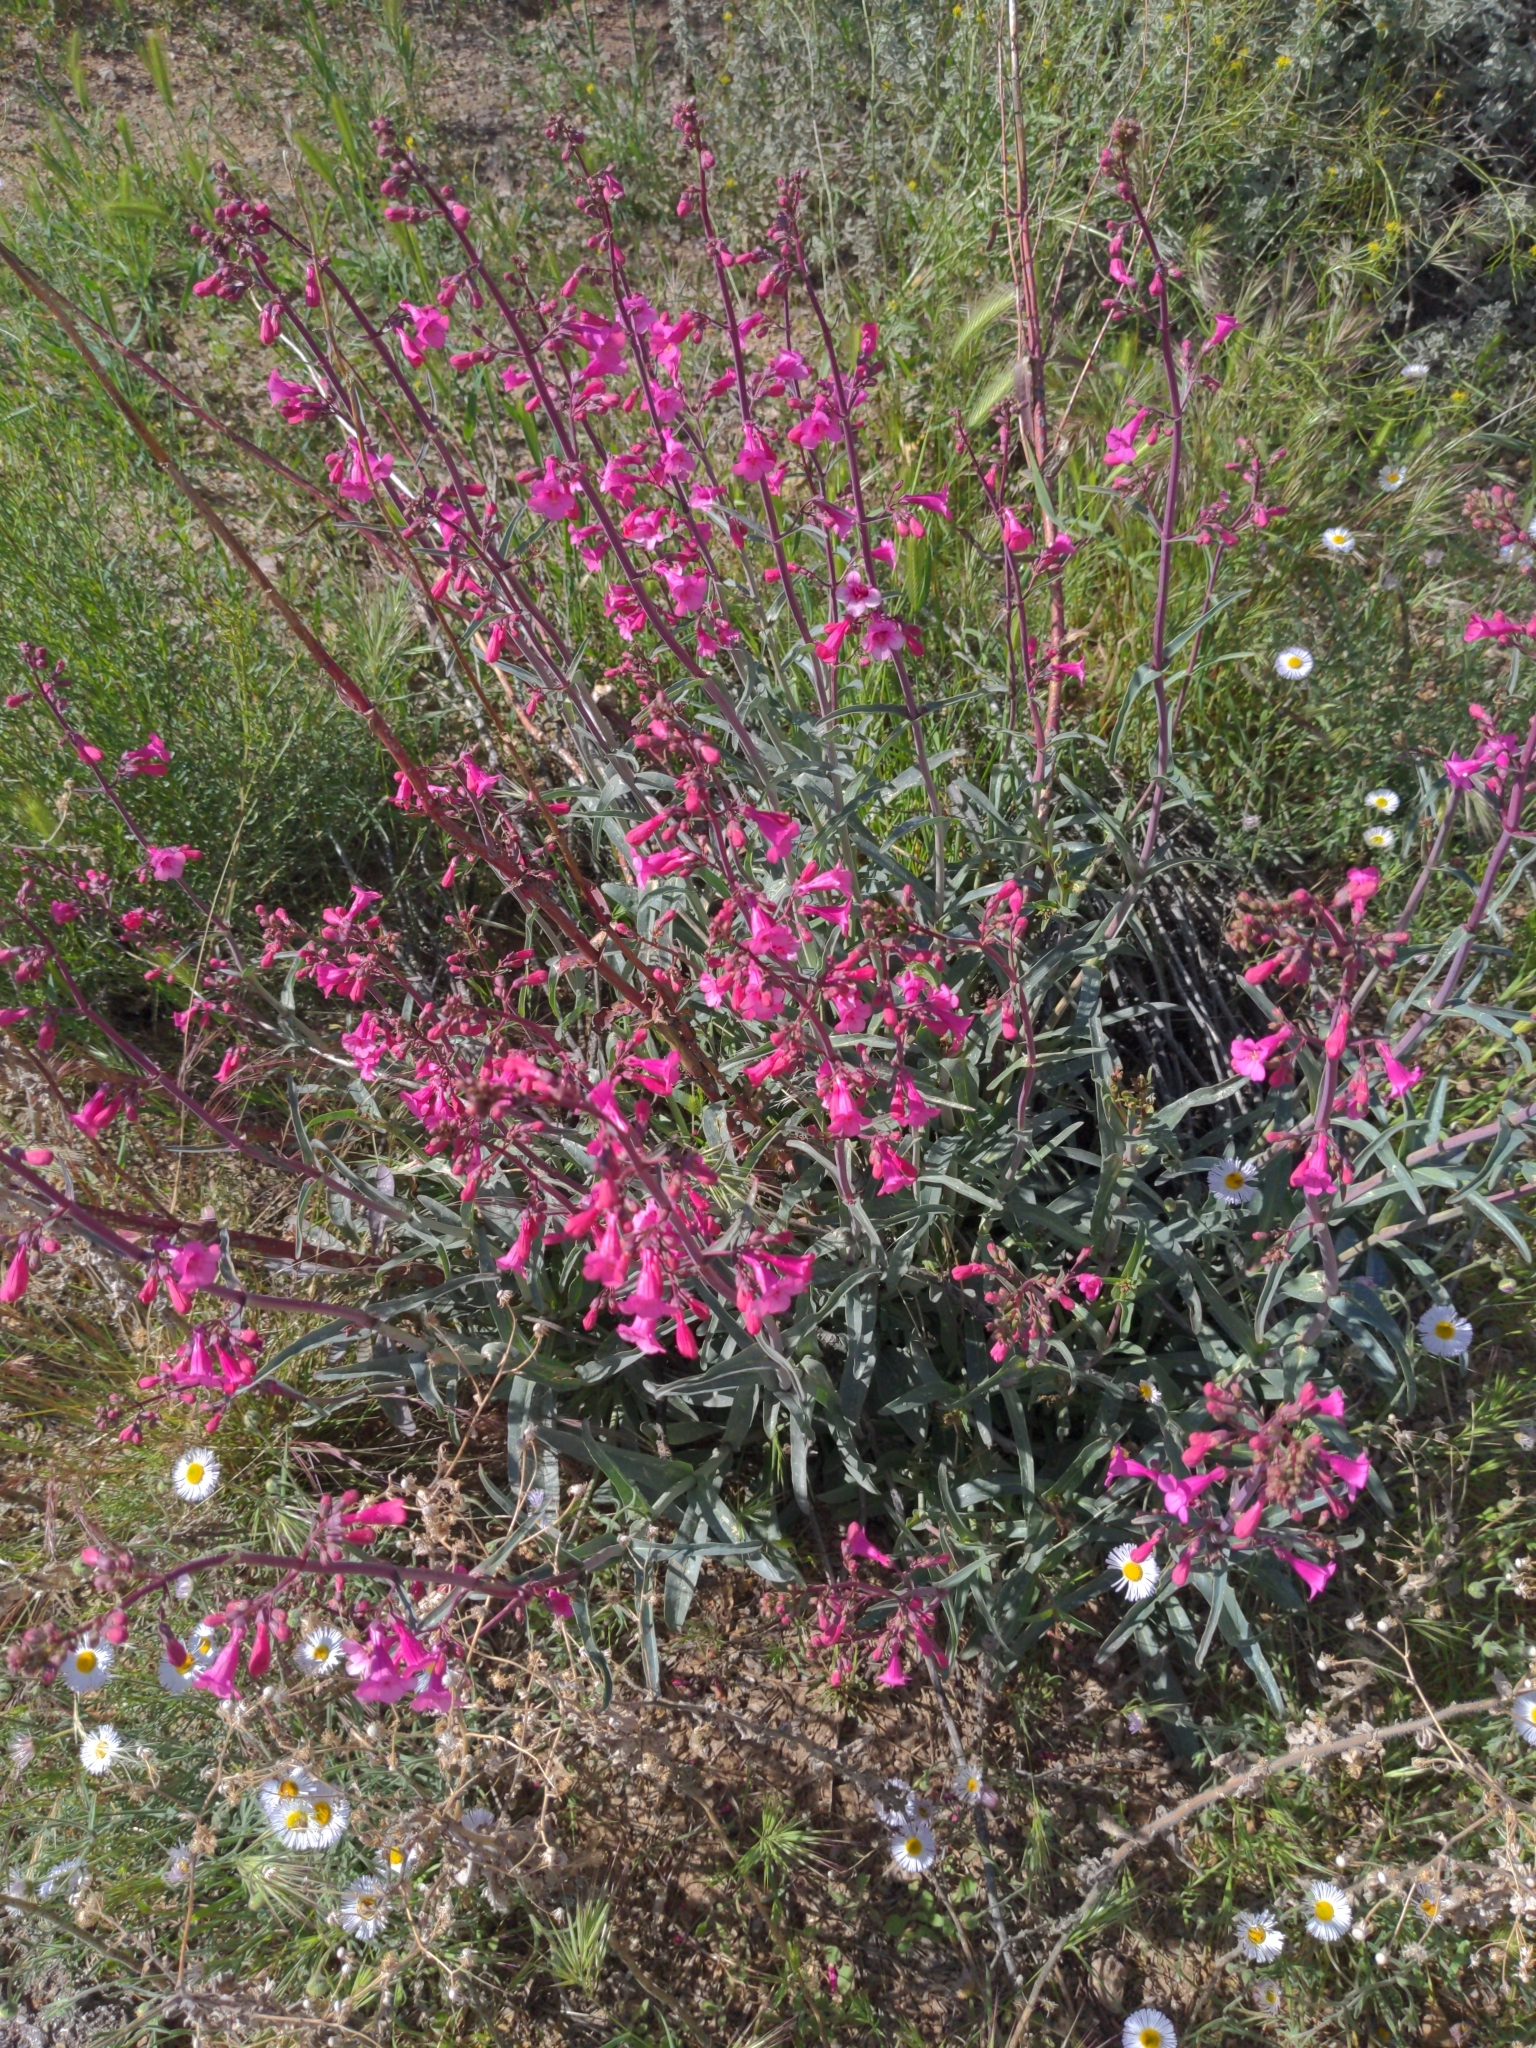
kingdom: Plantae
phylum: Tracheophyta
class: Magnoliopsida
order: Lamiales
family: Plantaginaceae
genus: Penstemon
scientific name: Penstemon parryi
